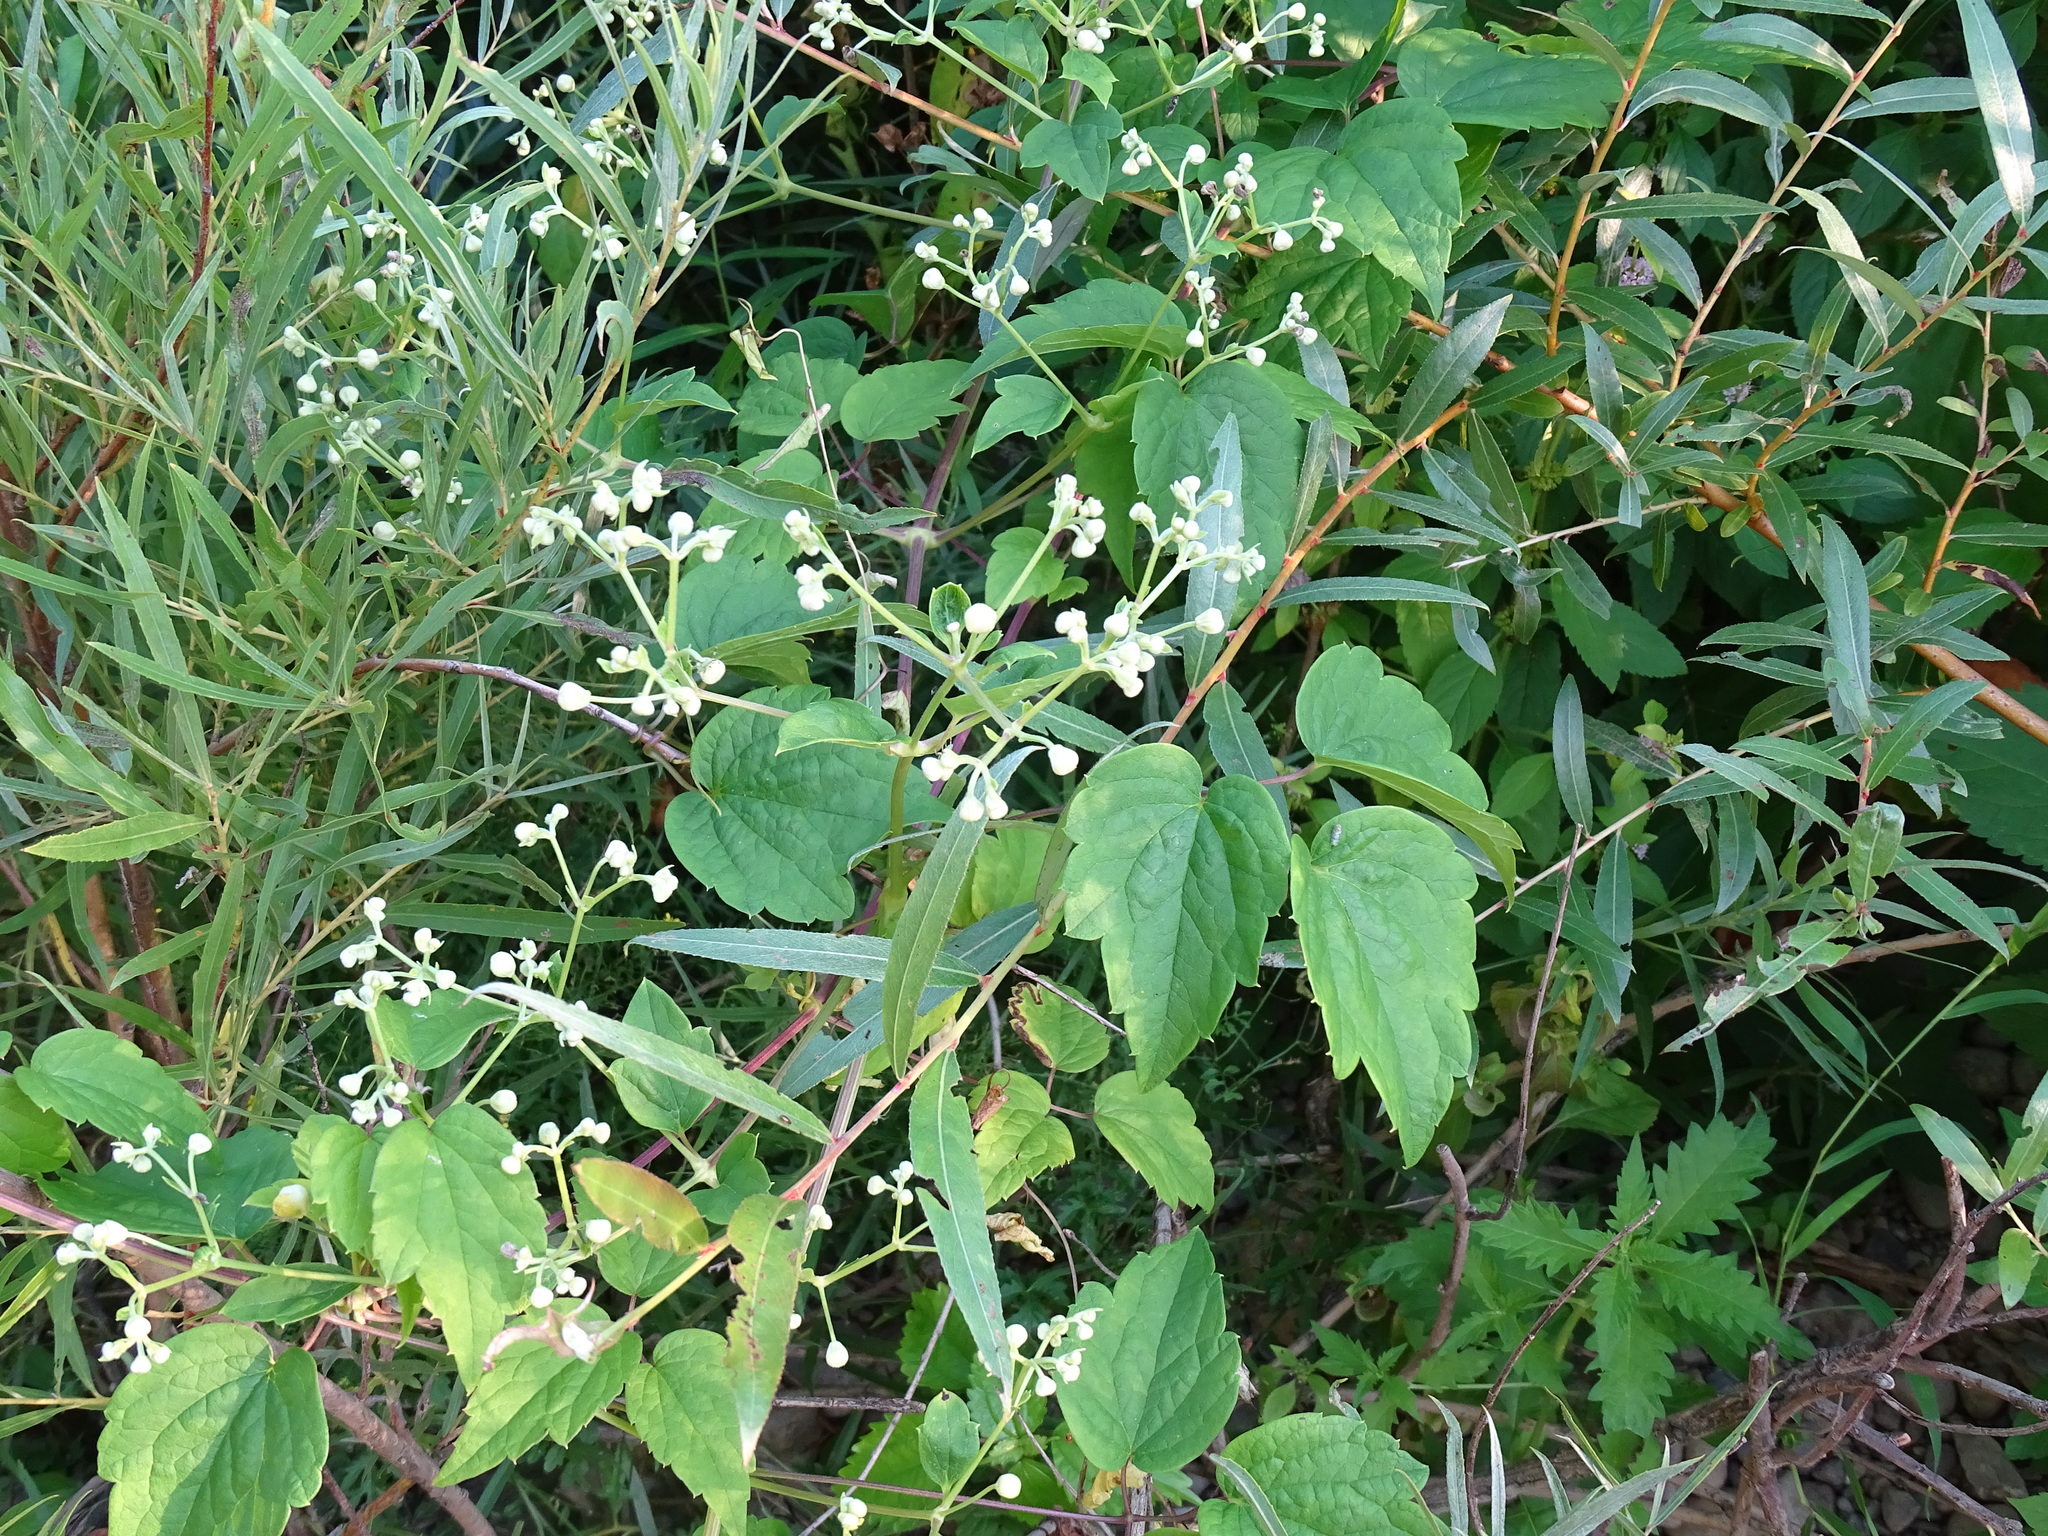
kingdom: Plantae
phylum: Tracheophyta
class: Magnoliopsida
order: Ranunculales
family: Ranunculaceae
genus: Clematis
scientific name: Clematis virginiana
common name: Virgin's-bower
